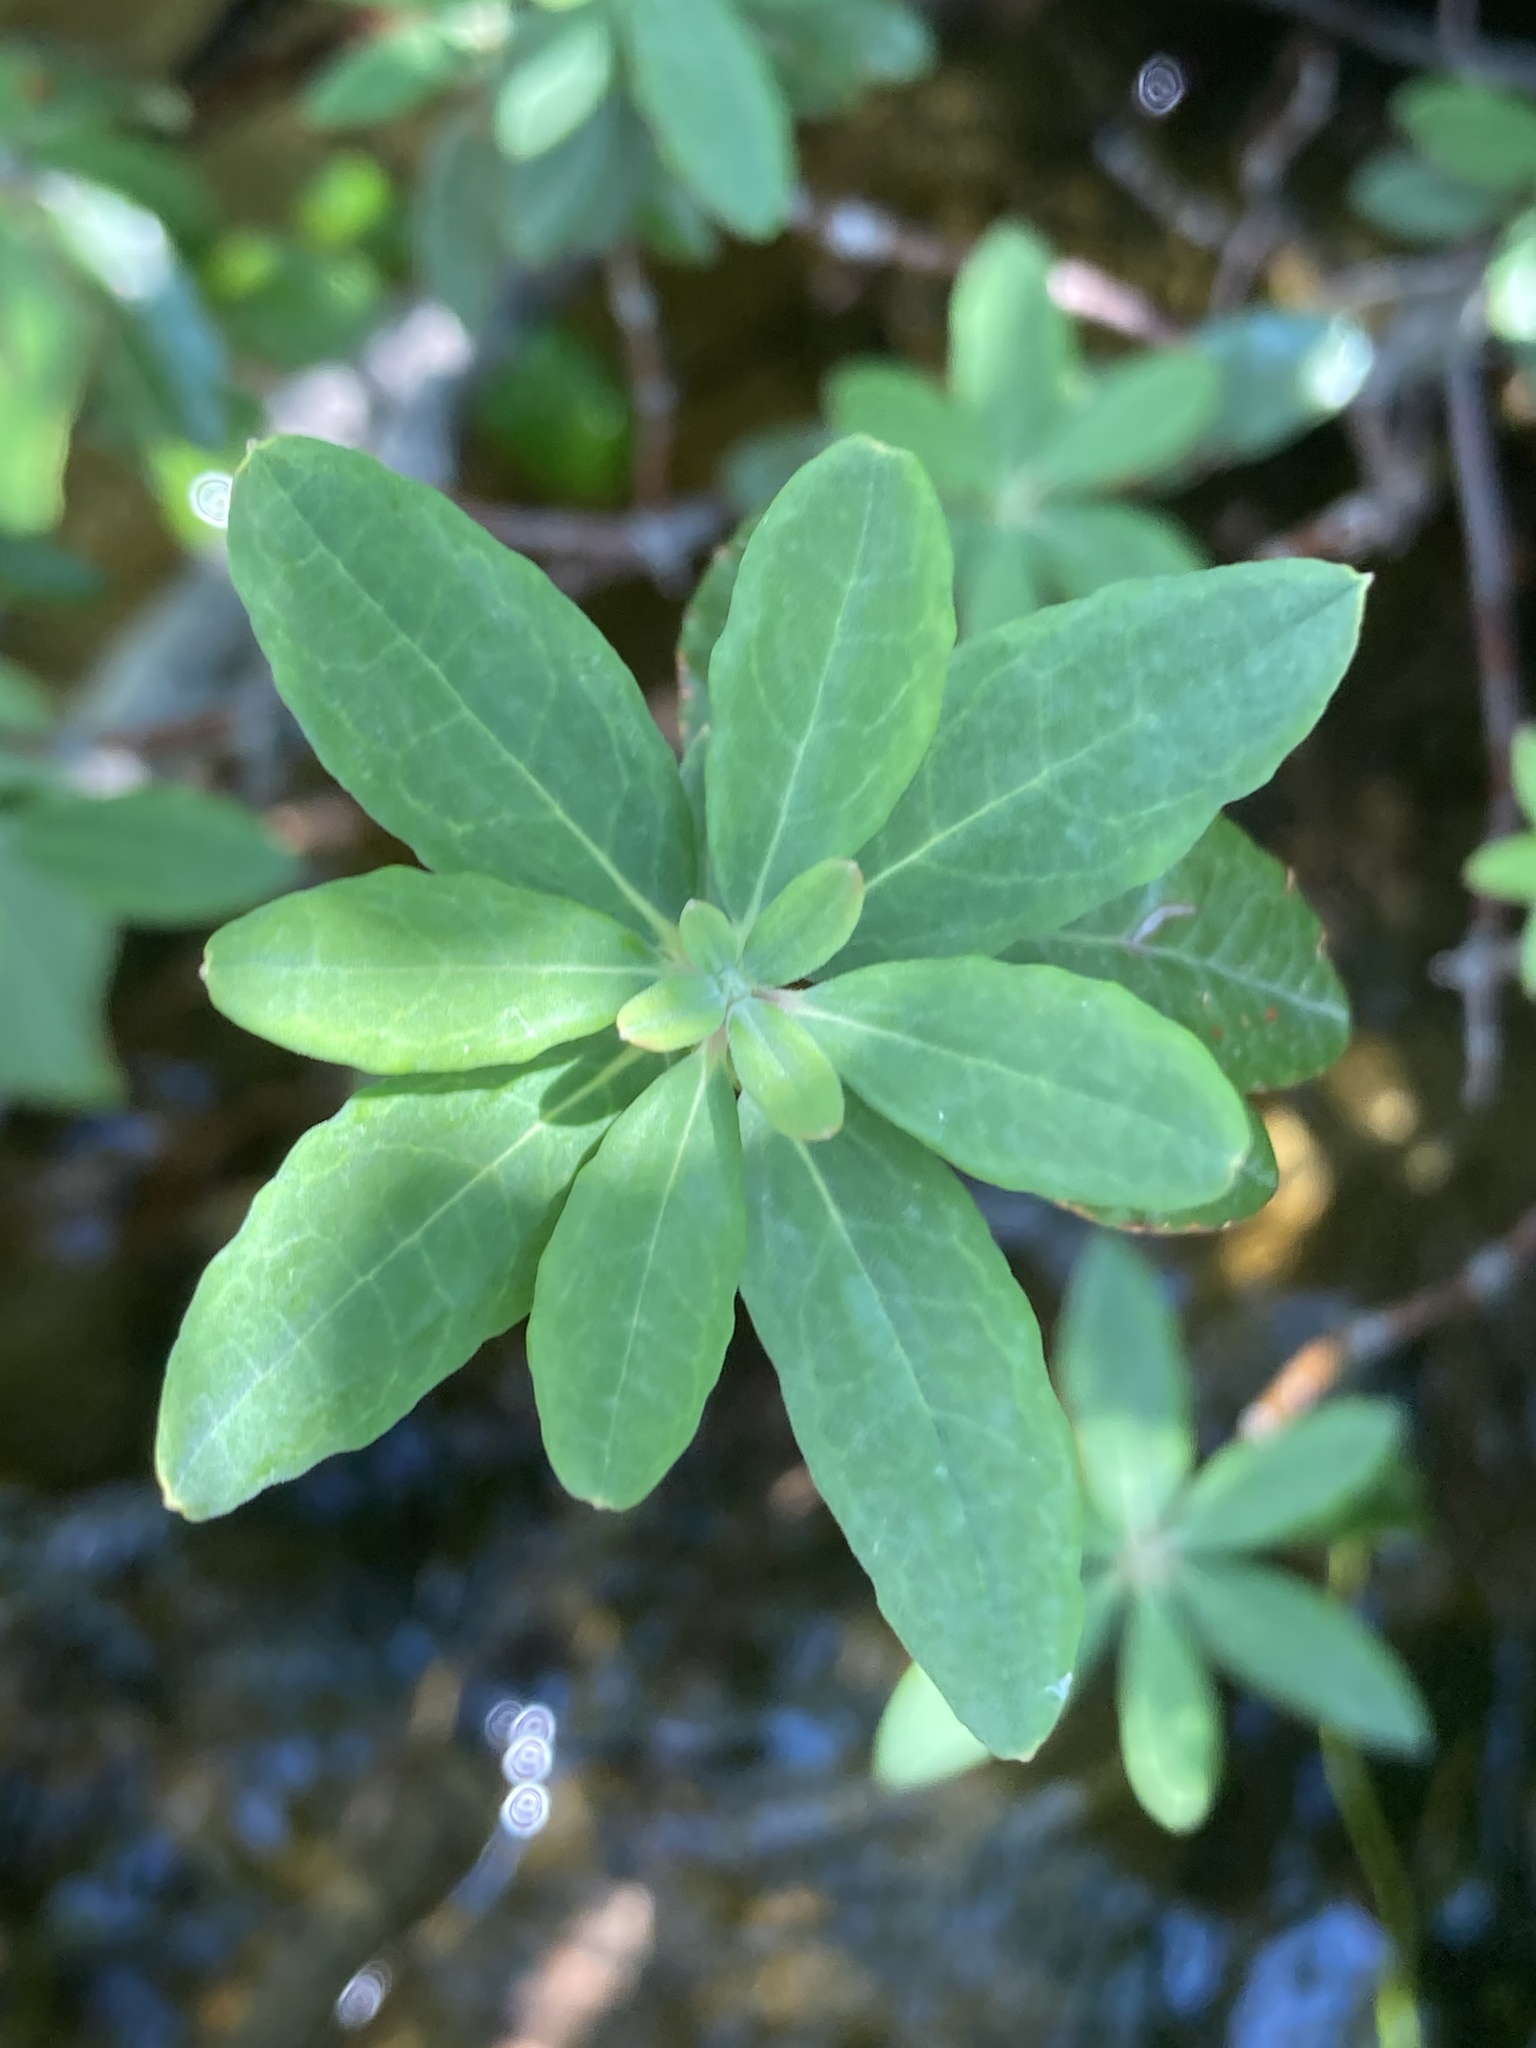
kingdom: Plantae
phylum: Tracheophyta
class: Magnoliopsida
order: Ericales
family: Ericaceae
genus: Rhododendron
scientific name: Rhododendron canadense
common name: Rhodora
